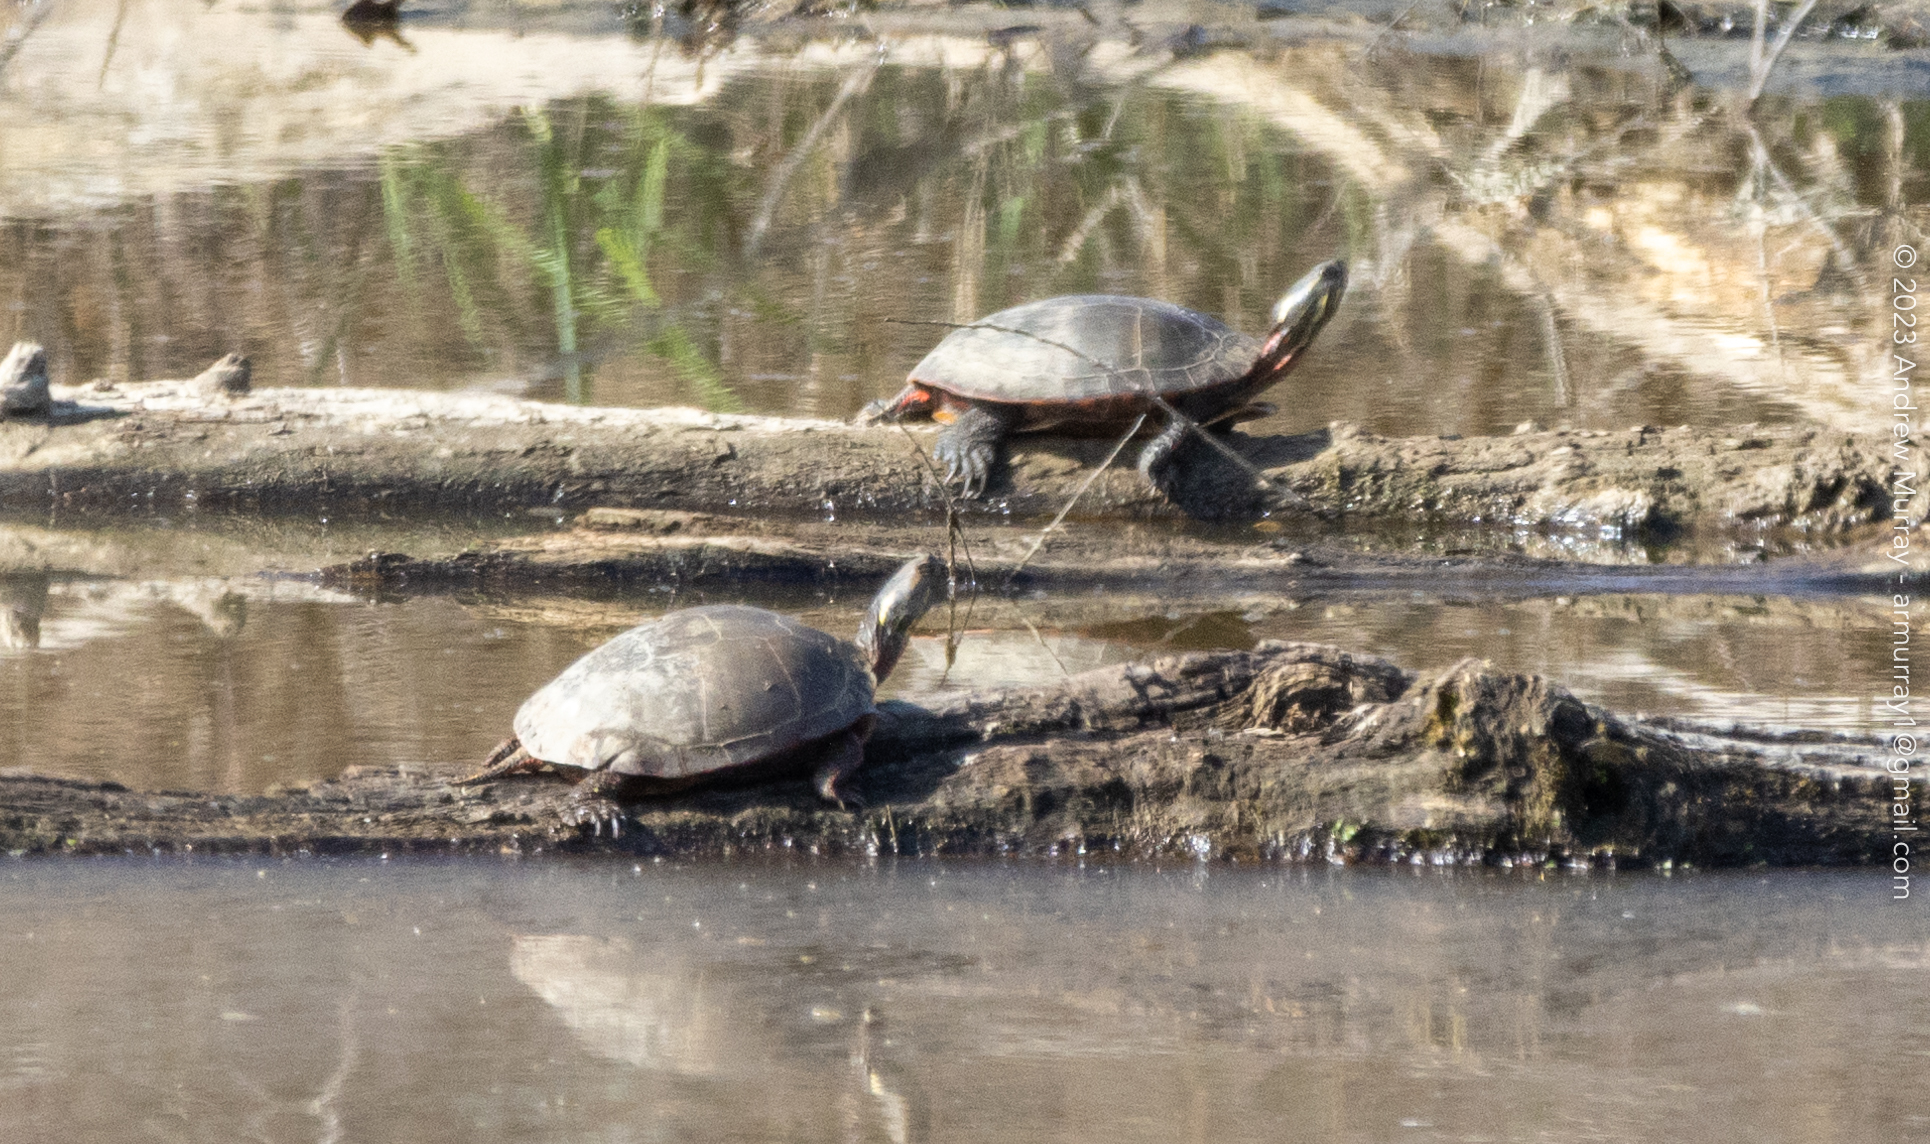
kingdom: Animalia
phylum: Chordata
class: Testudines
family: Emydidae
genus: Chrysemys
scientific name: Chrysemys picta
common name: Painted turtle
